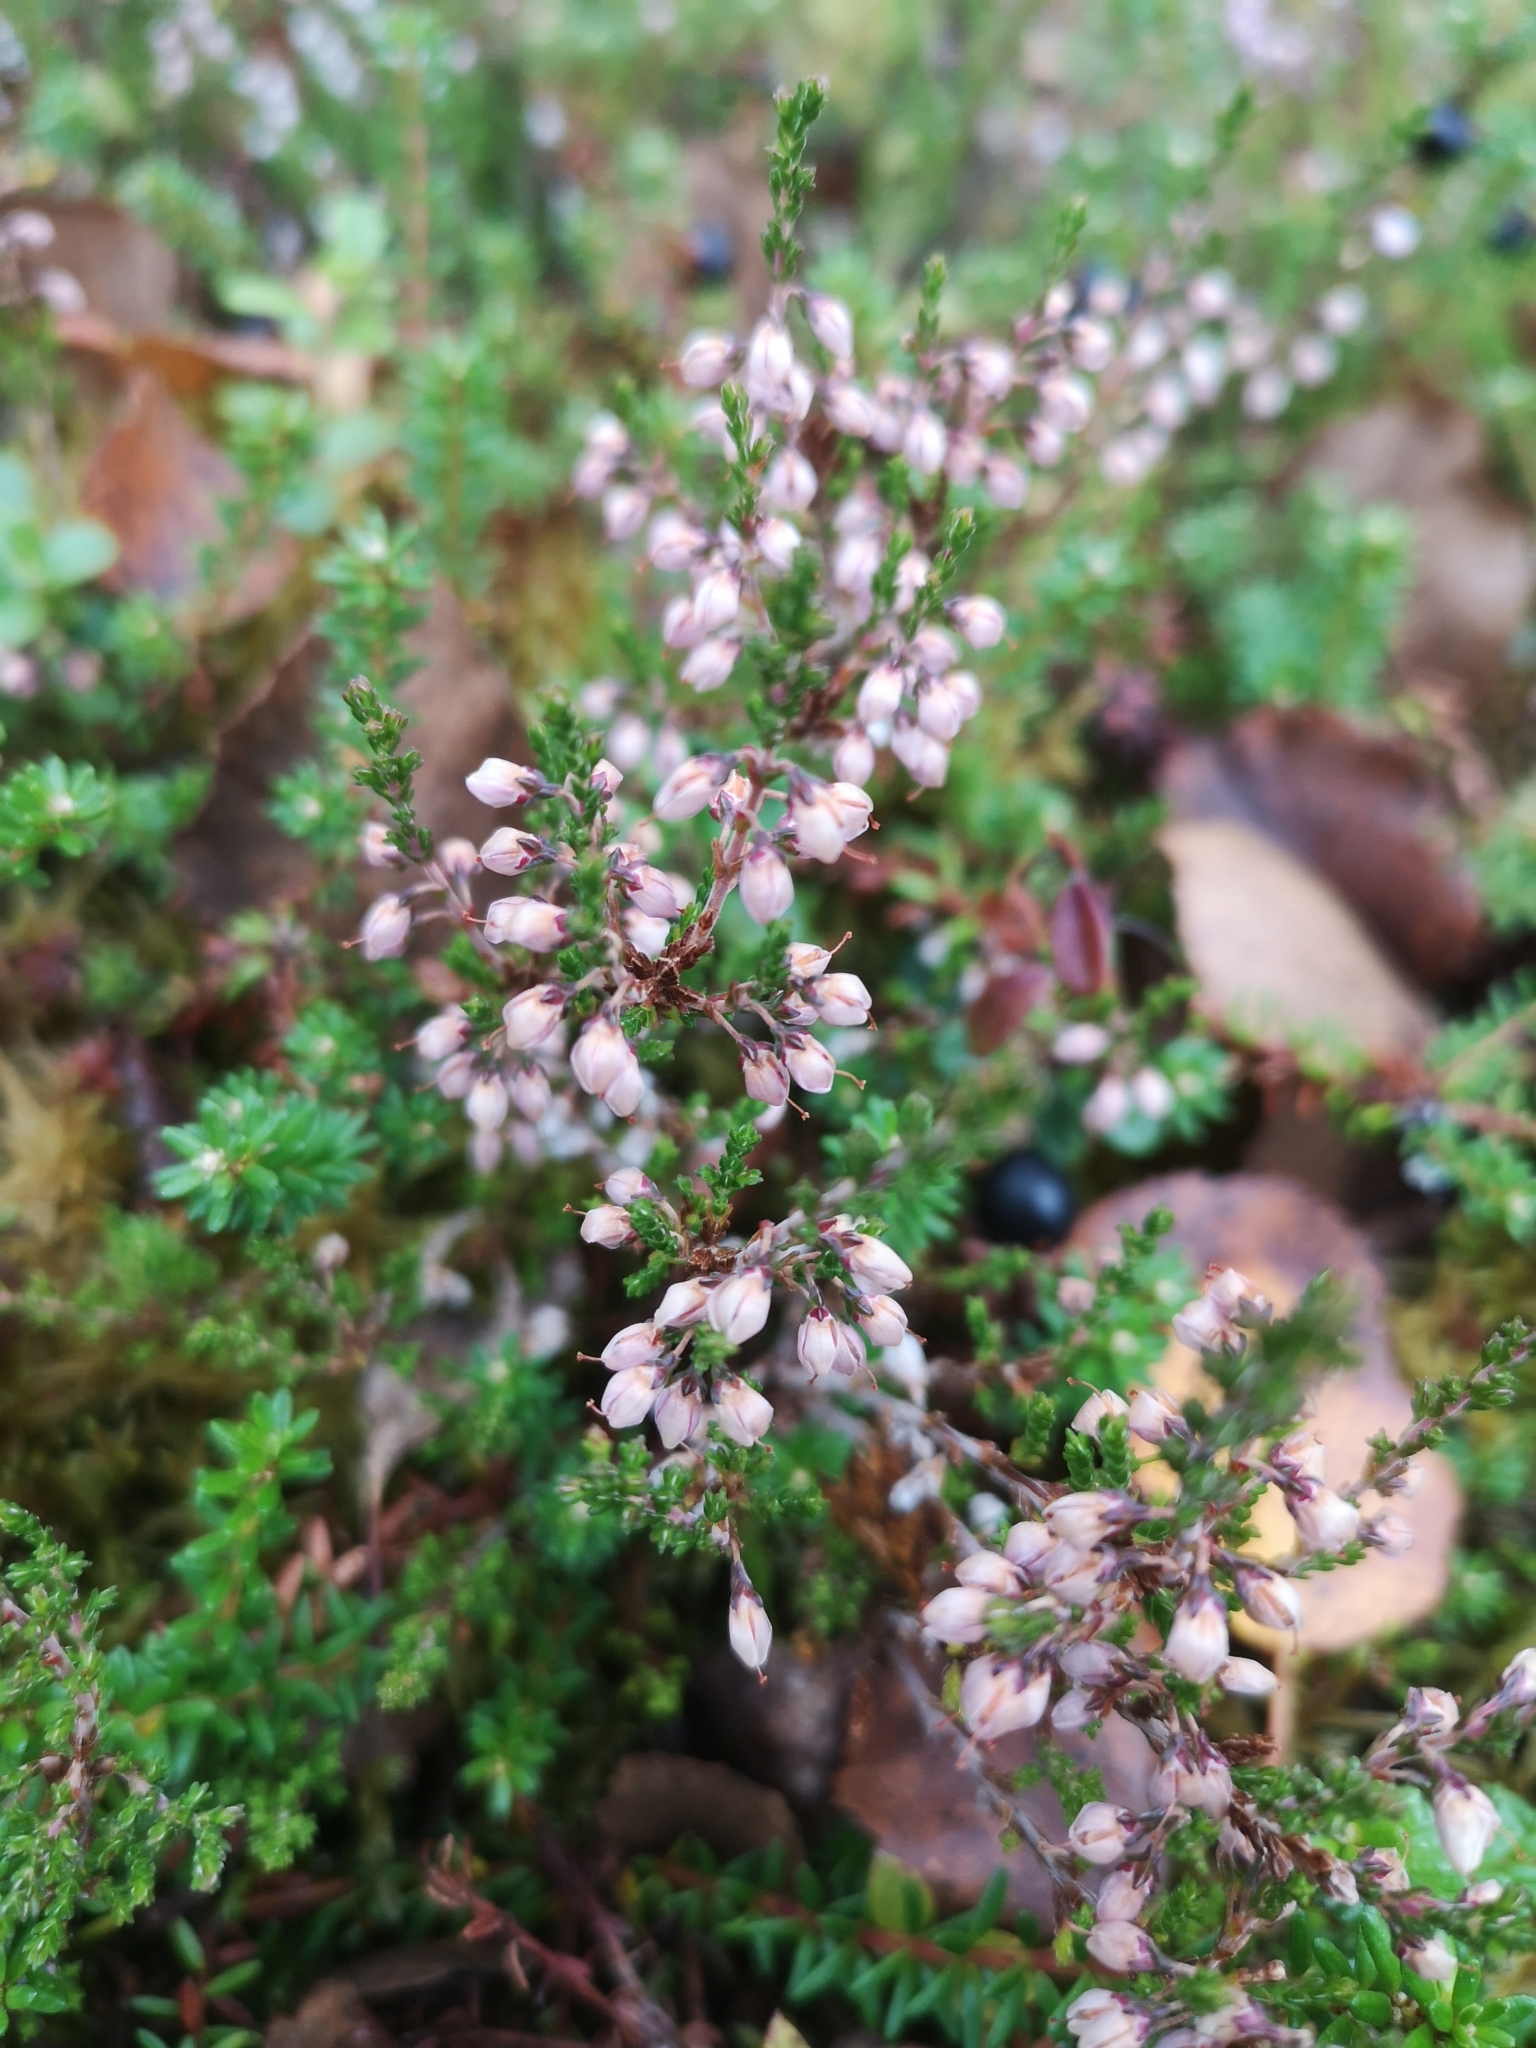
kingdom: Plantae
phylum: Tracheophyta
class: Magnoliopsida
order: Ericales
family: Ericaceae
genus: Calluna
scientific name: Calluna vulgaris
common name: Heather
